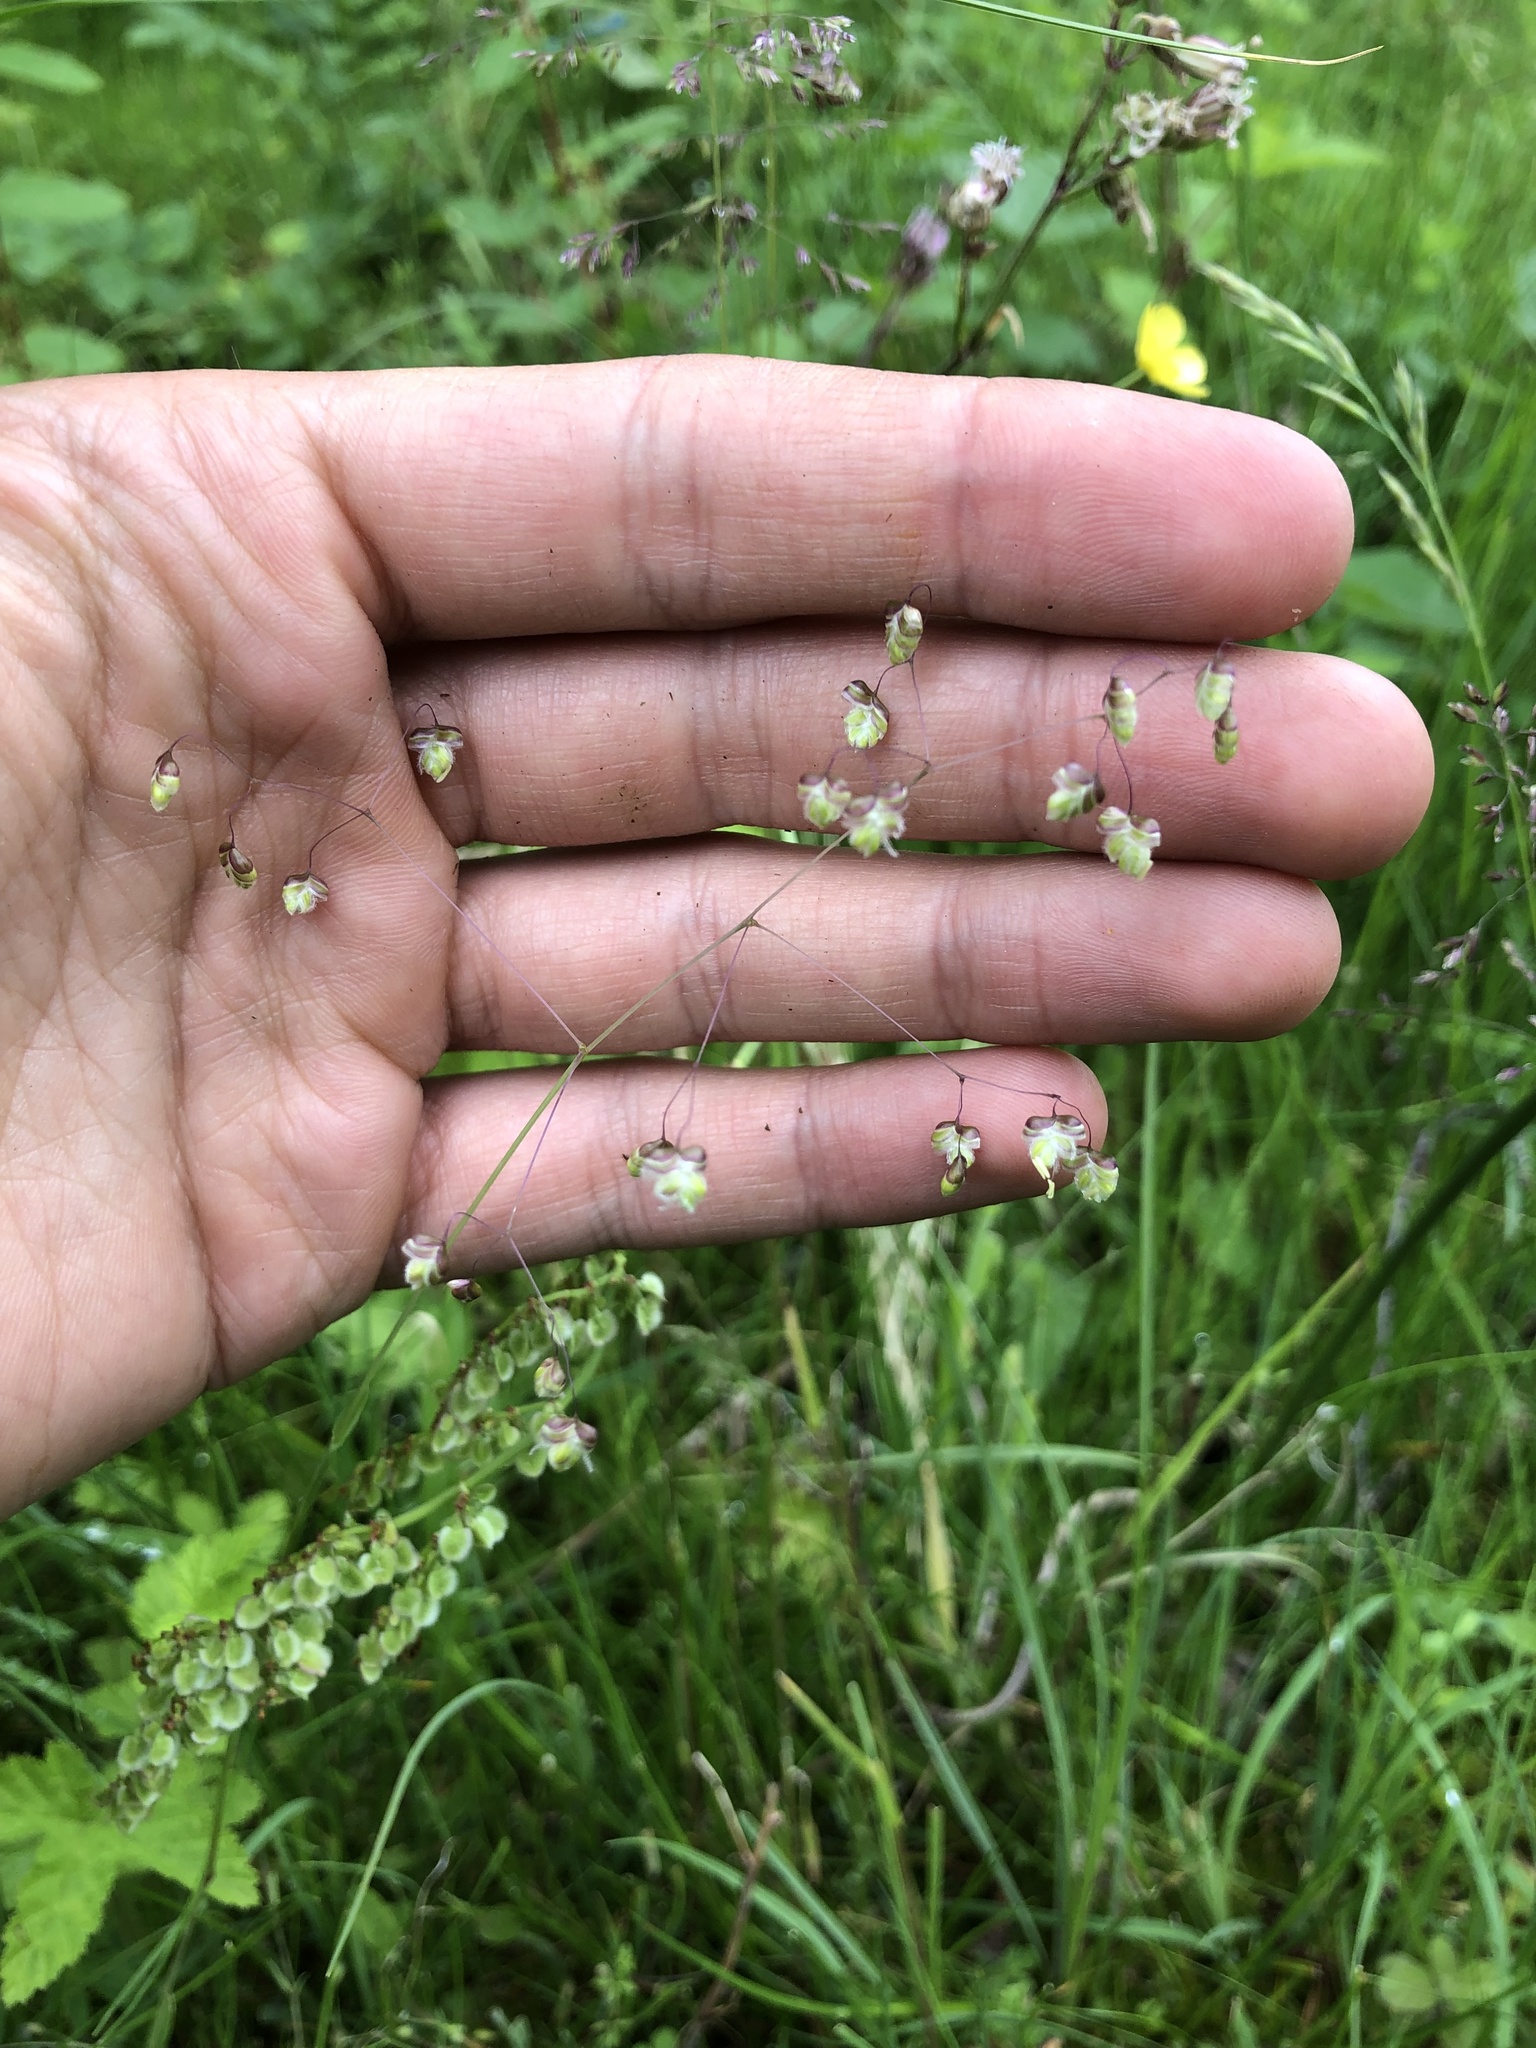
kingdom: Plantae
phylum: Tracheophyta
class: Liliopsida
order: Poales
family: Poaceae
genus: Briza
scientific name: Briza media
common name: Quaking grass
